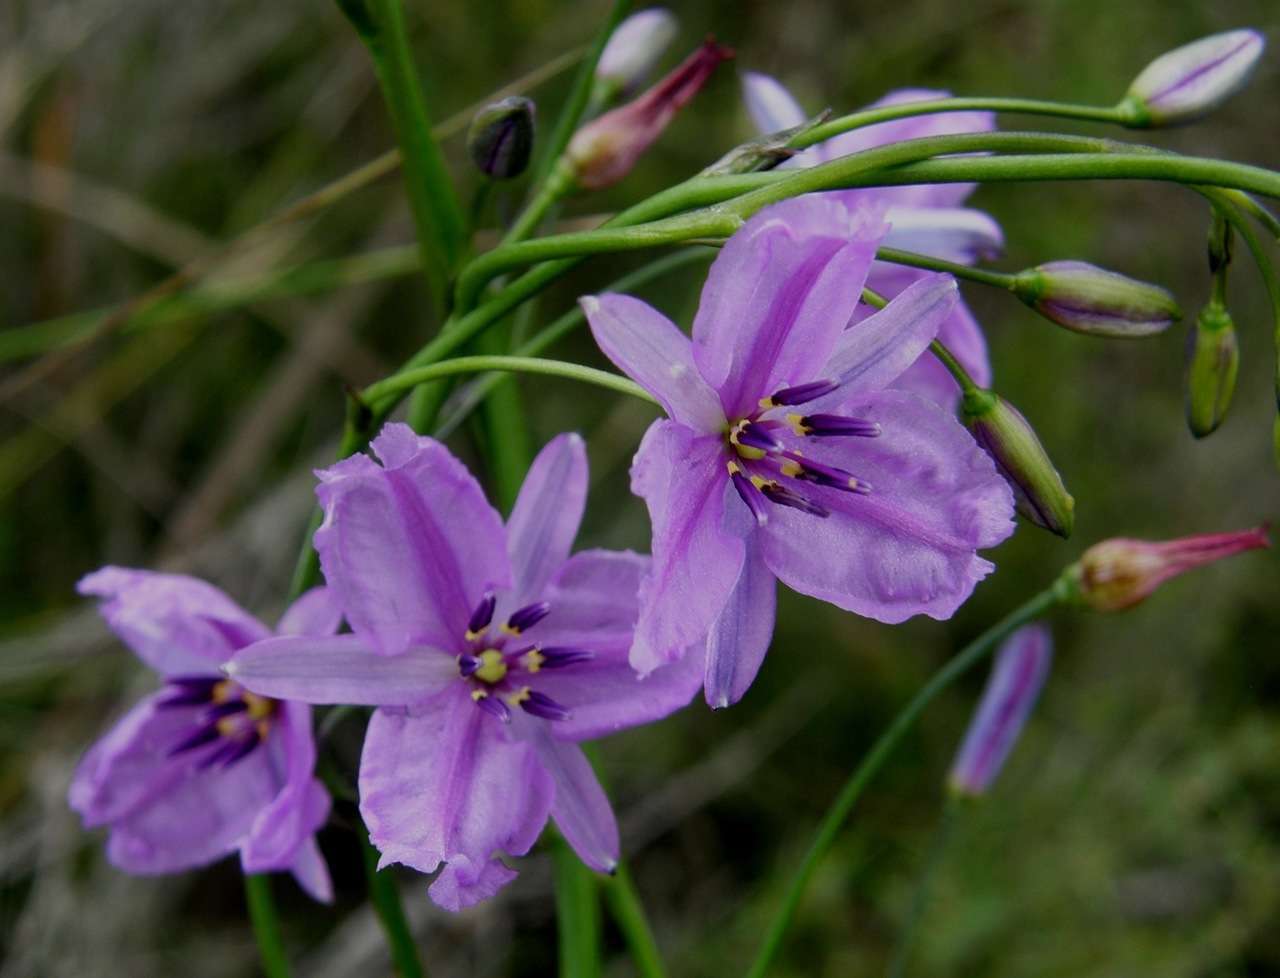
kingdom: Plantae
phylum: Tracheophyta
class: Liliopsida
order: Asparagales
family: Asparagaceae
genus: Arthropodium
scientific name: Arthropodium strictum
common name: Chocolate-lily
